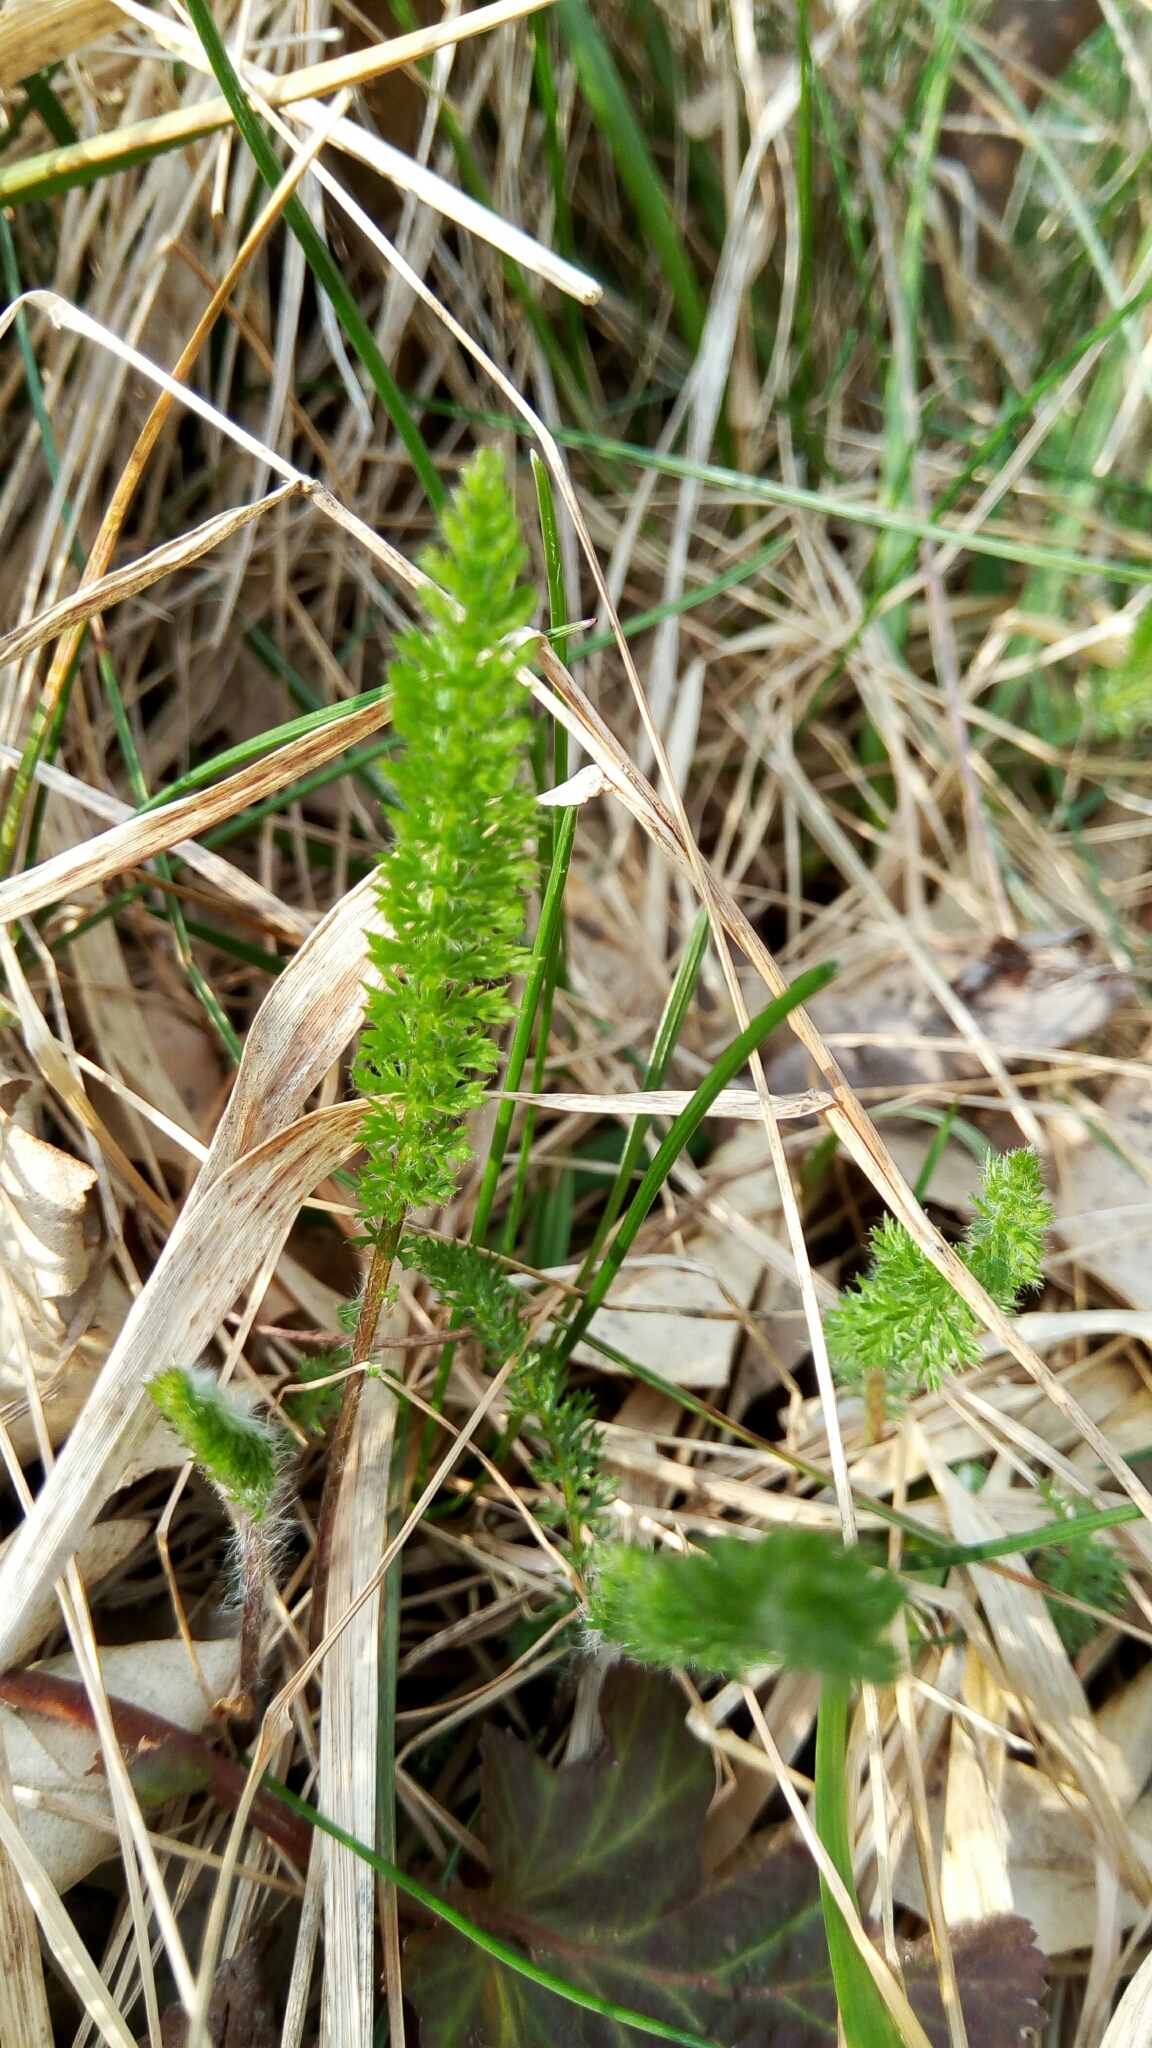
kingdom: Plantae
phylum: Tracheophyta
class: Magnoliopsida
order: Asterales
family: Asteraceae
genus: Achillea
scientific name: Achillea millefolium
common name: Yarrow
